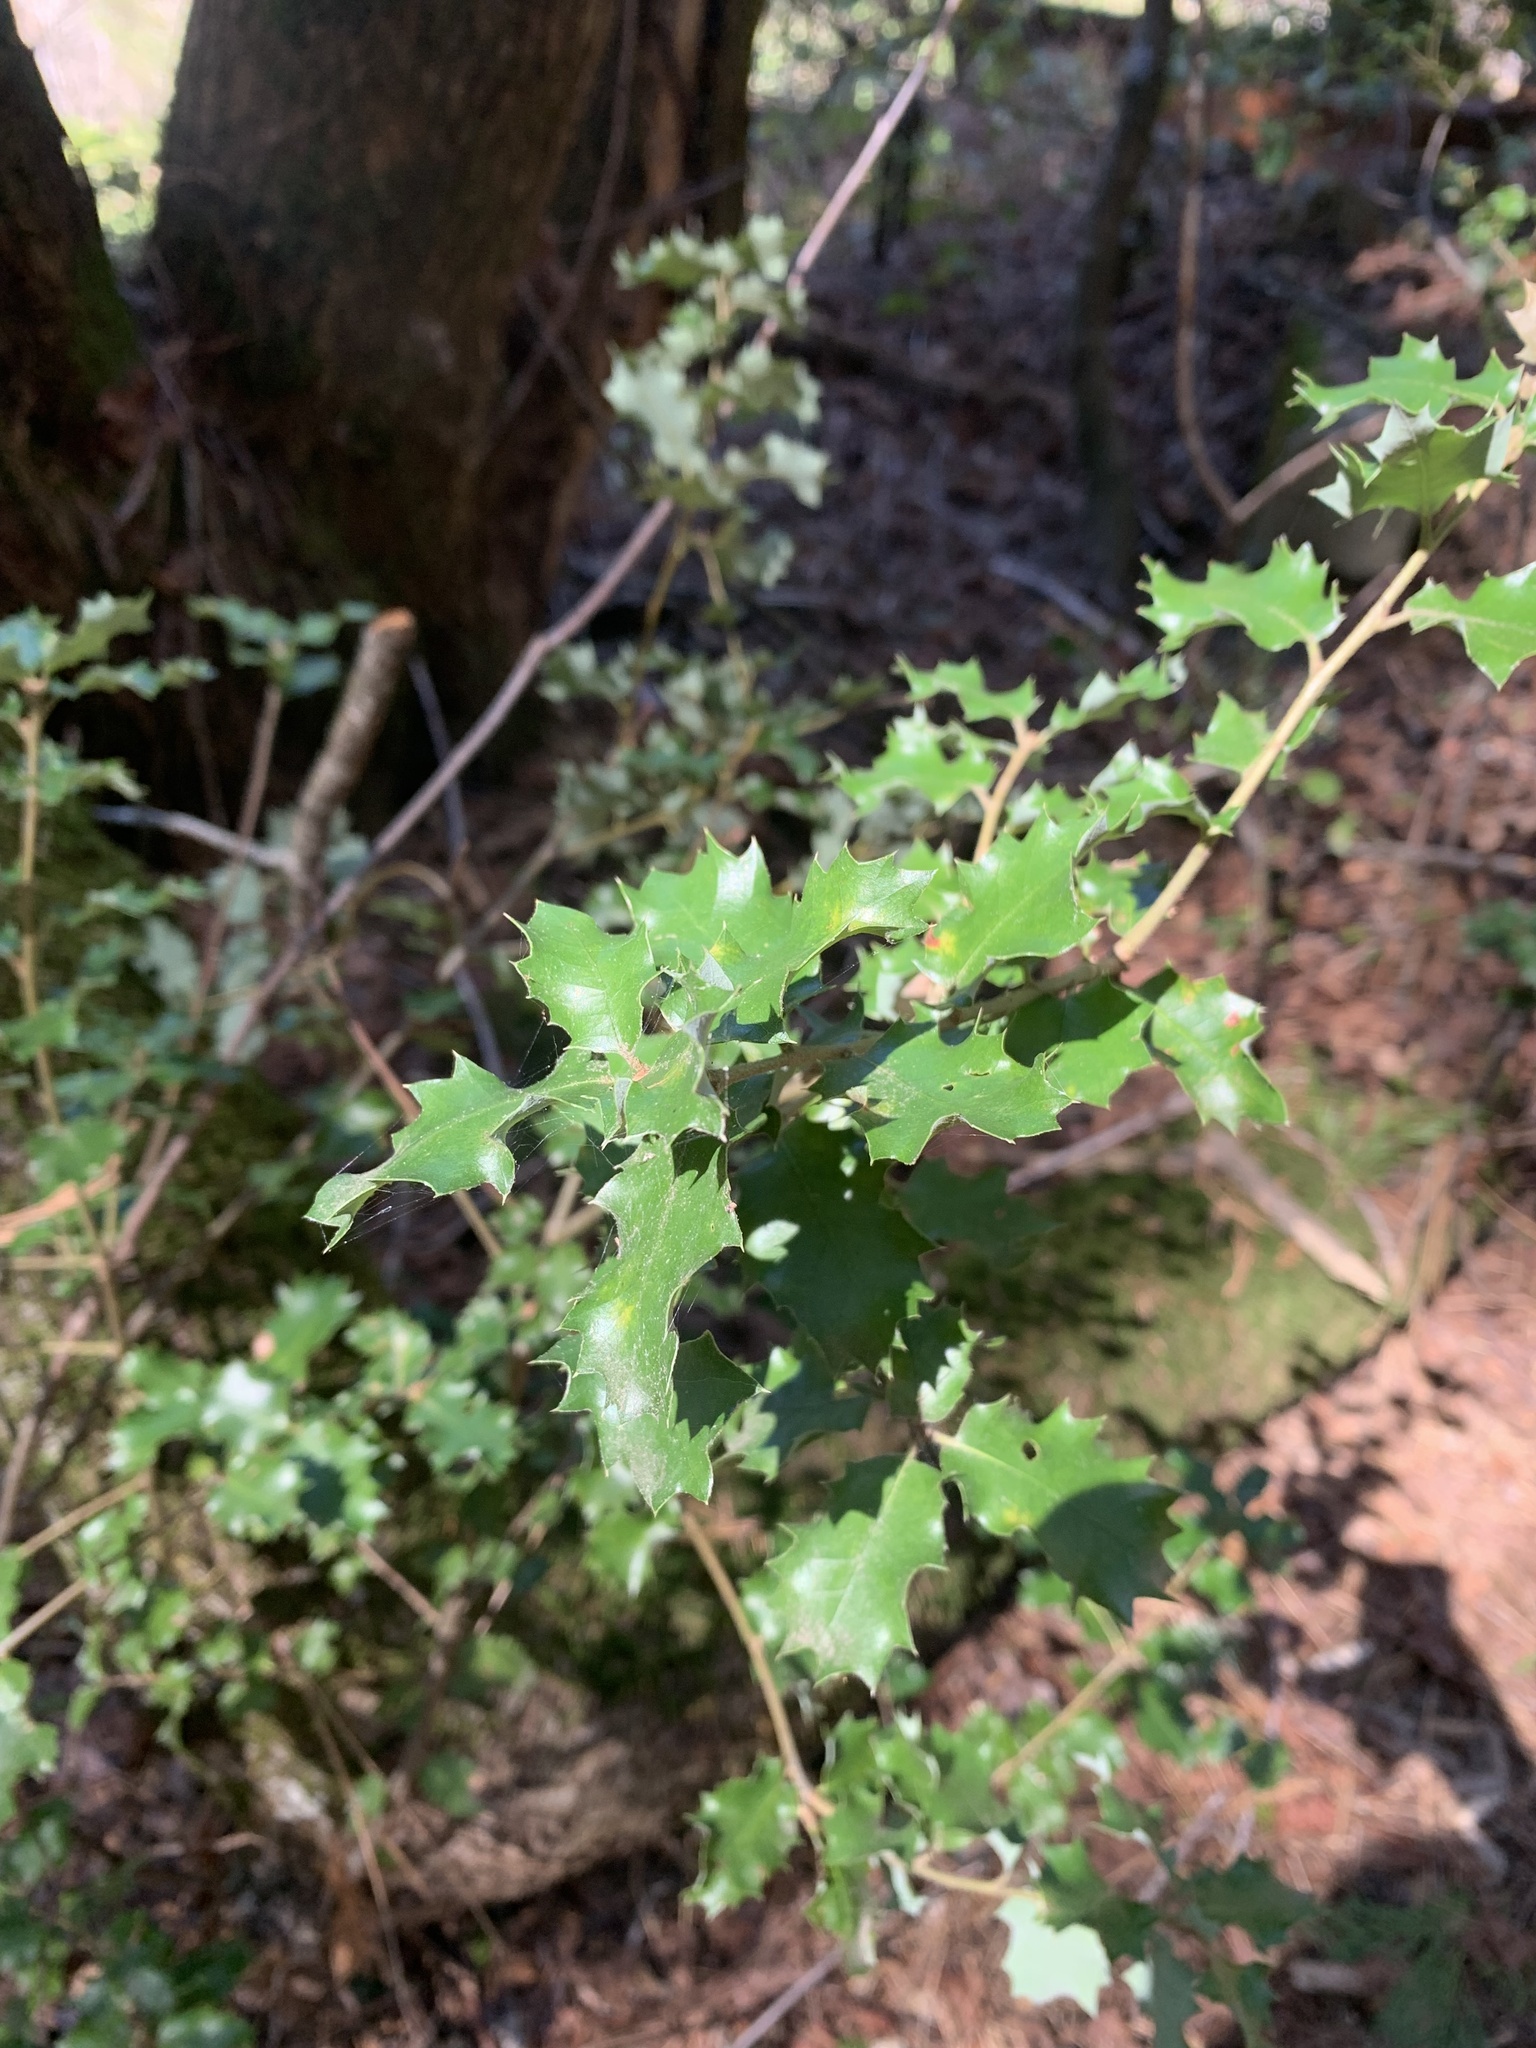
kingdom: Plantae
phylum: Tracheophyta
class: Magnoliopsida
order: Fagales
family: Fagaceae
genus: Quercus
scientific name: Quercus chrysolepis
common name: Canyon live oak
